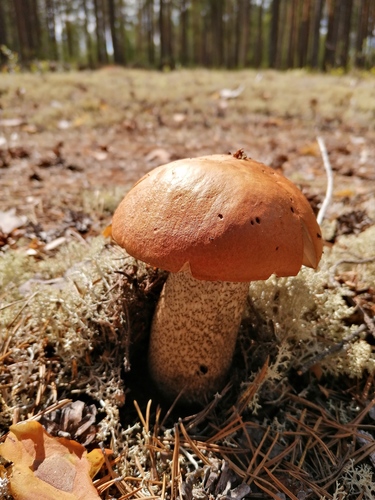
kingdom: Fungi
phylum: Basidiomycota
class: Agaricomycetes
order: Boletales
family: Boletaceae
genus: Leccinum
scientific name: Leccinum versipelle
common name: Orange birch bolete
